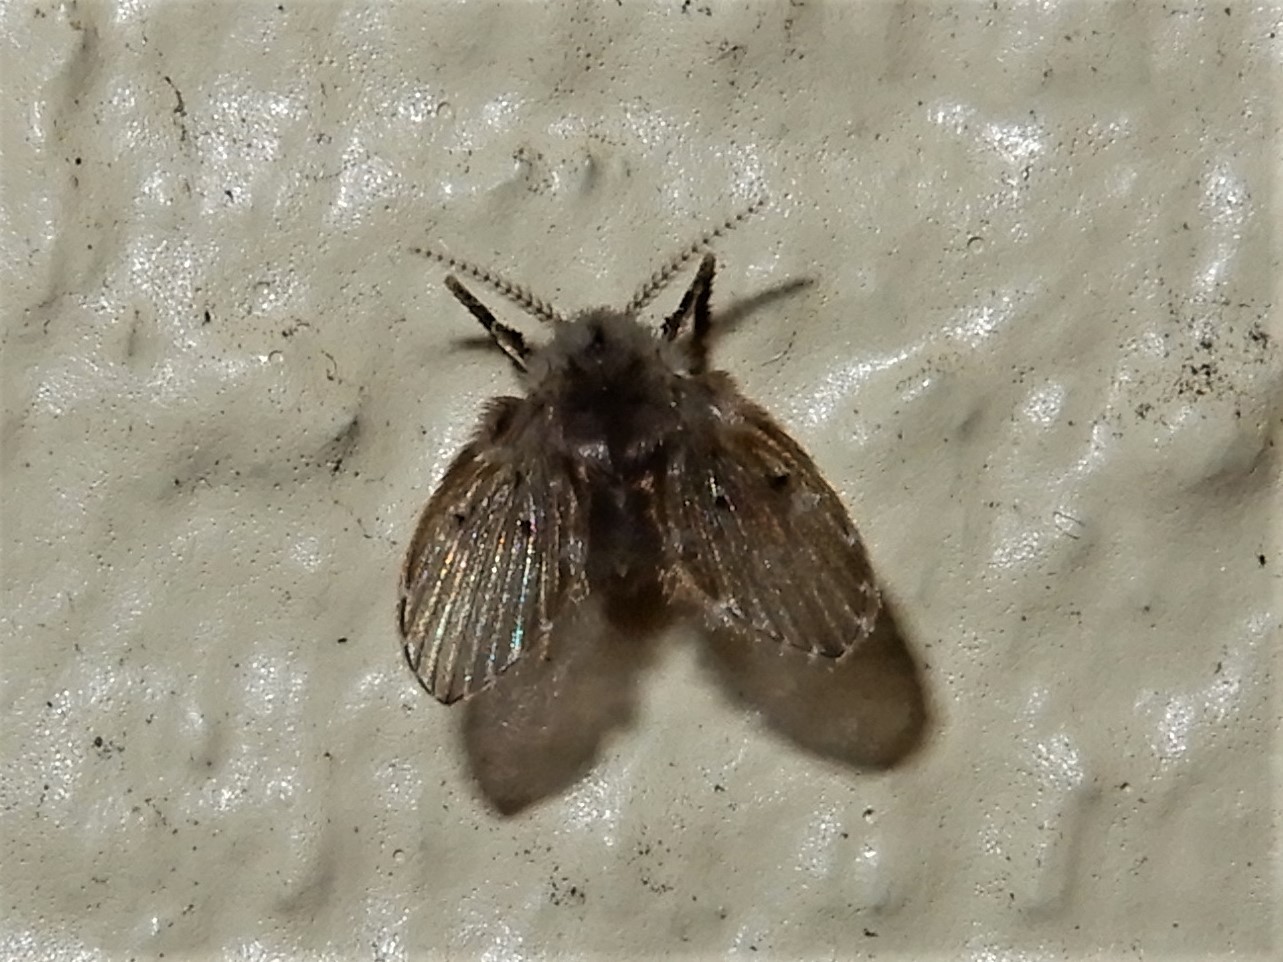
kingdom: Animalia
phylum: Arthropoda
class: Insecta
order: Diptera
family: Psychodidae
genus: Clogmia
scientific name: Clogmia albipunctatus
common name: White-spotted moth fly
